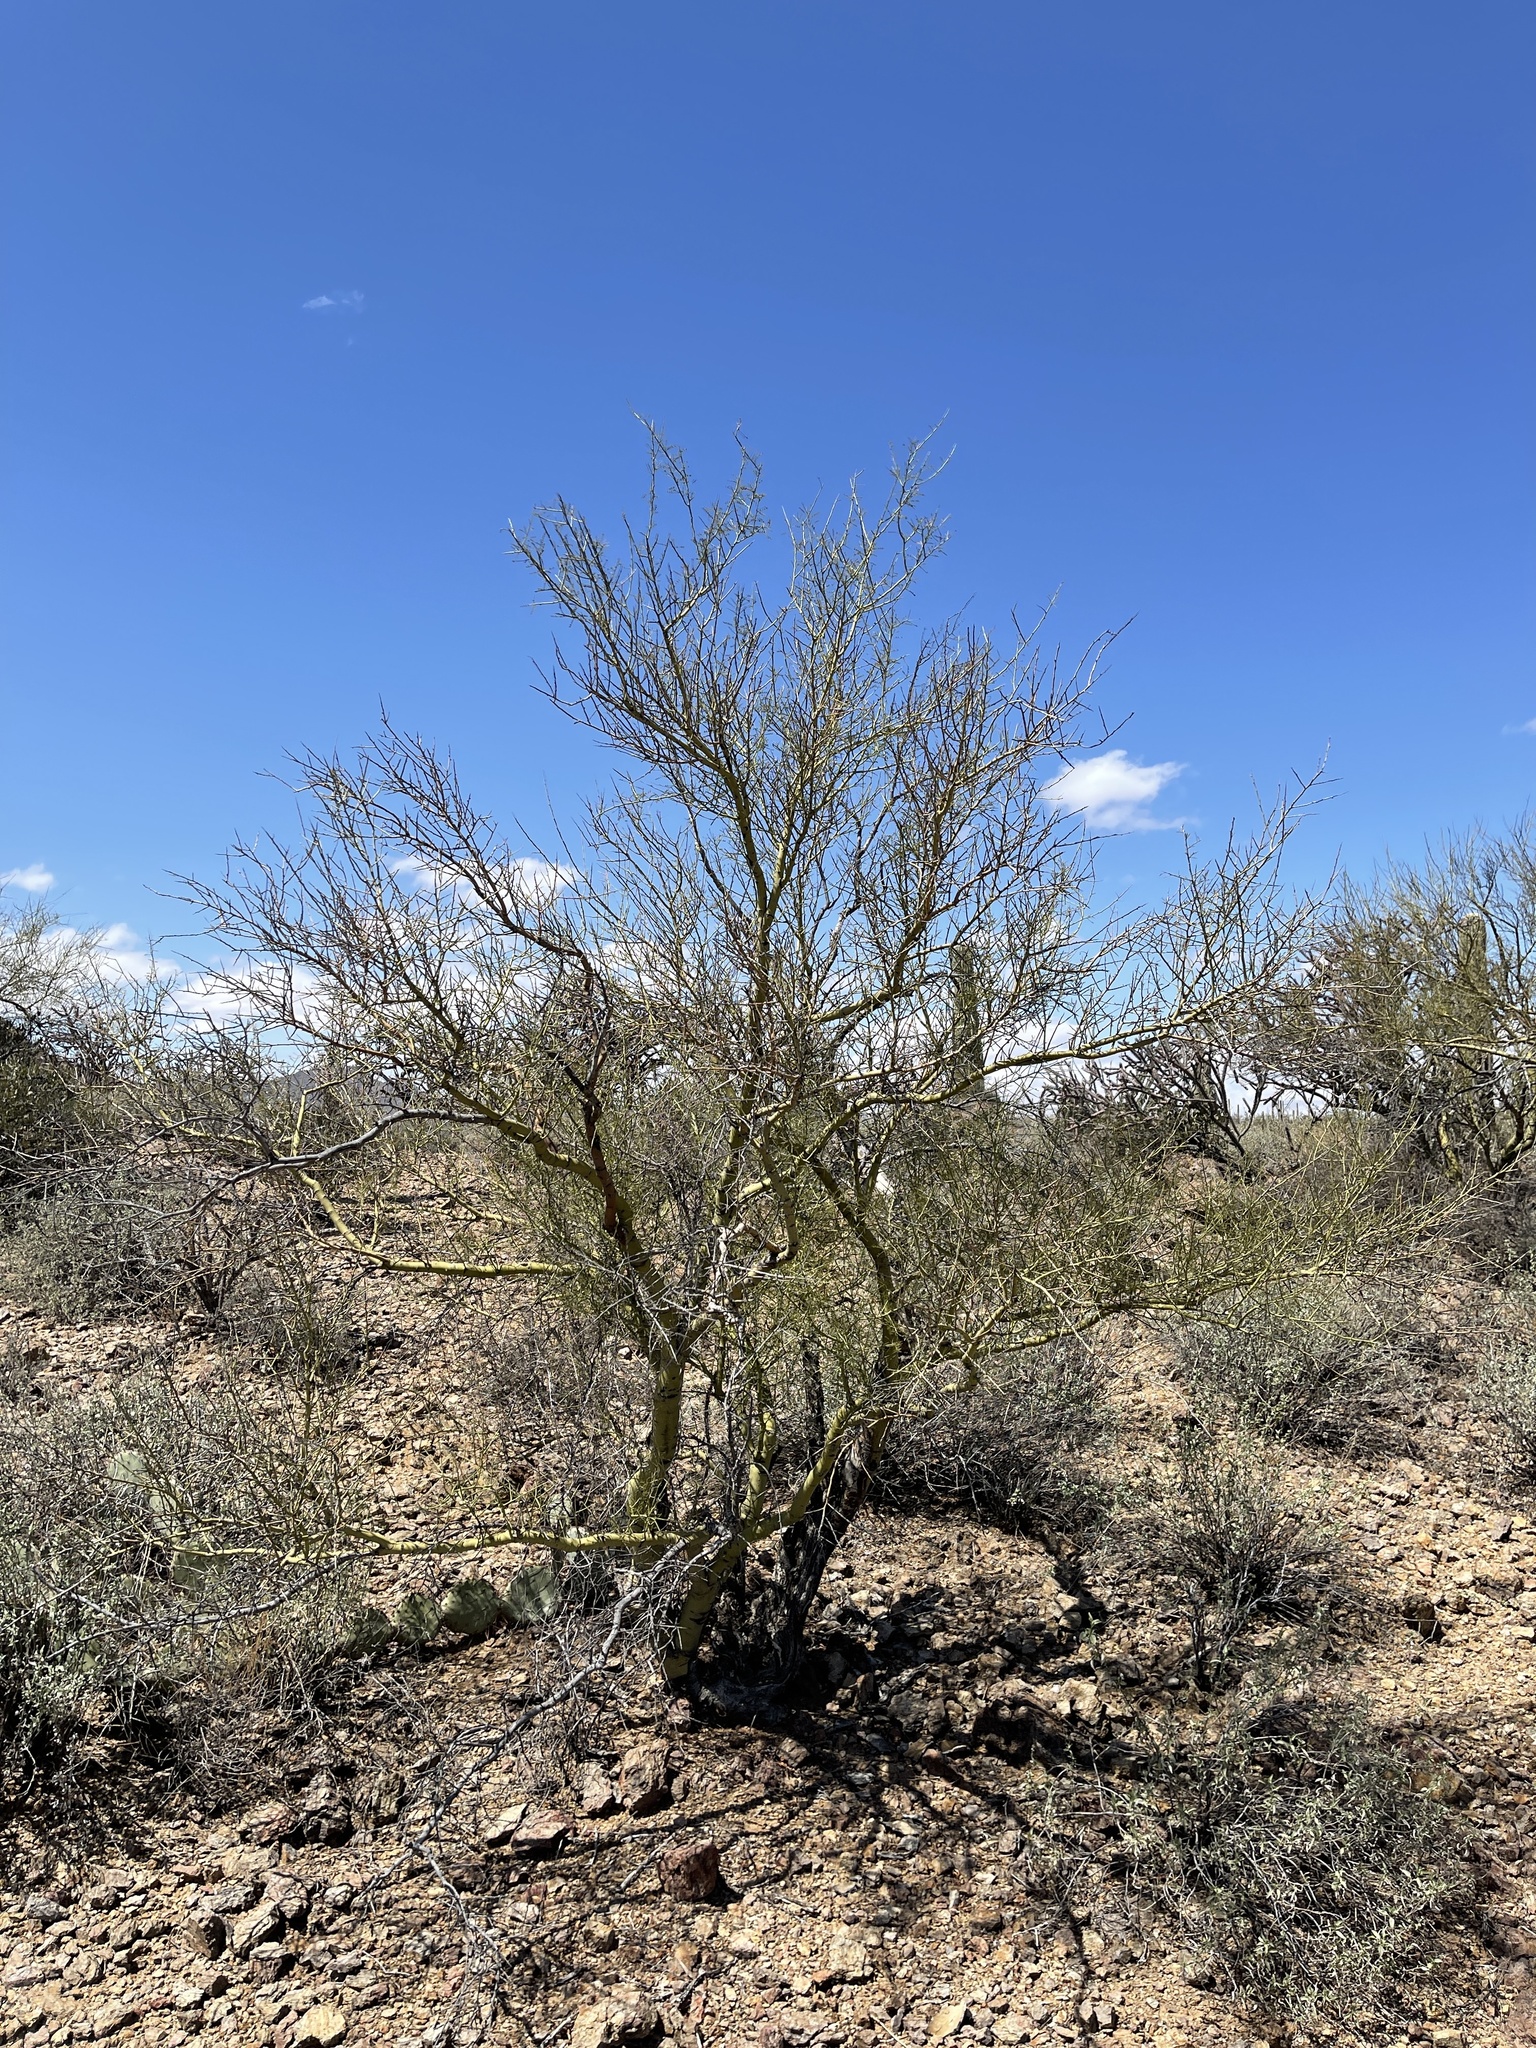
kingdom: Plantae
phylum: Tracheophyta
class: Magnoliopsida
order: Fabales
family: Fabaceae
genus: Parkinsonia
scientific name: Parkinsonia microphylla
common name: Yellow paloverde
